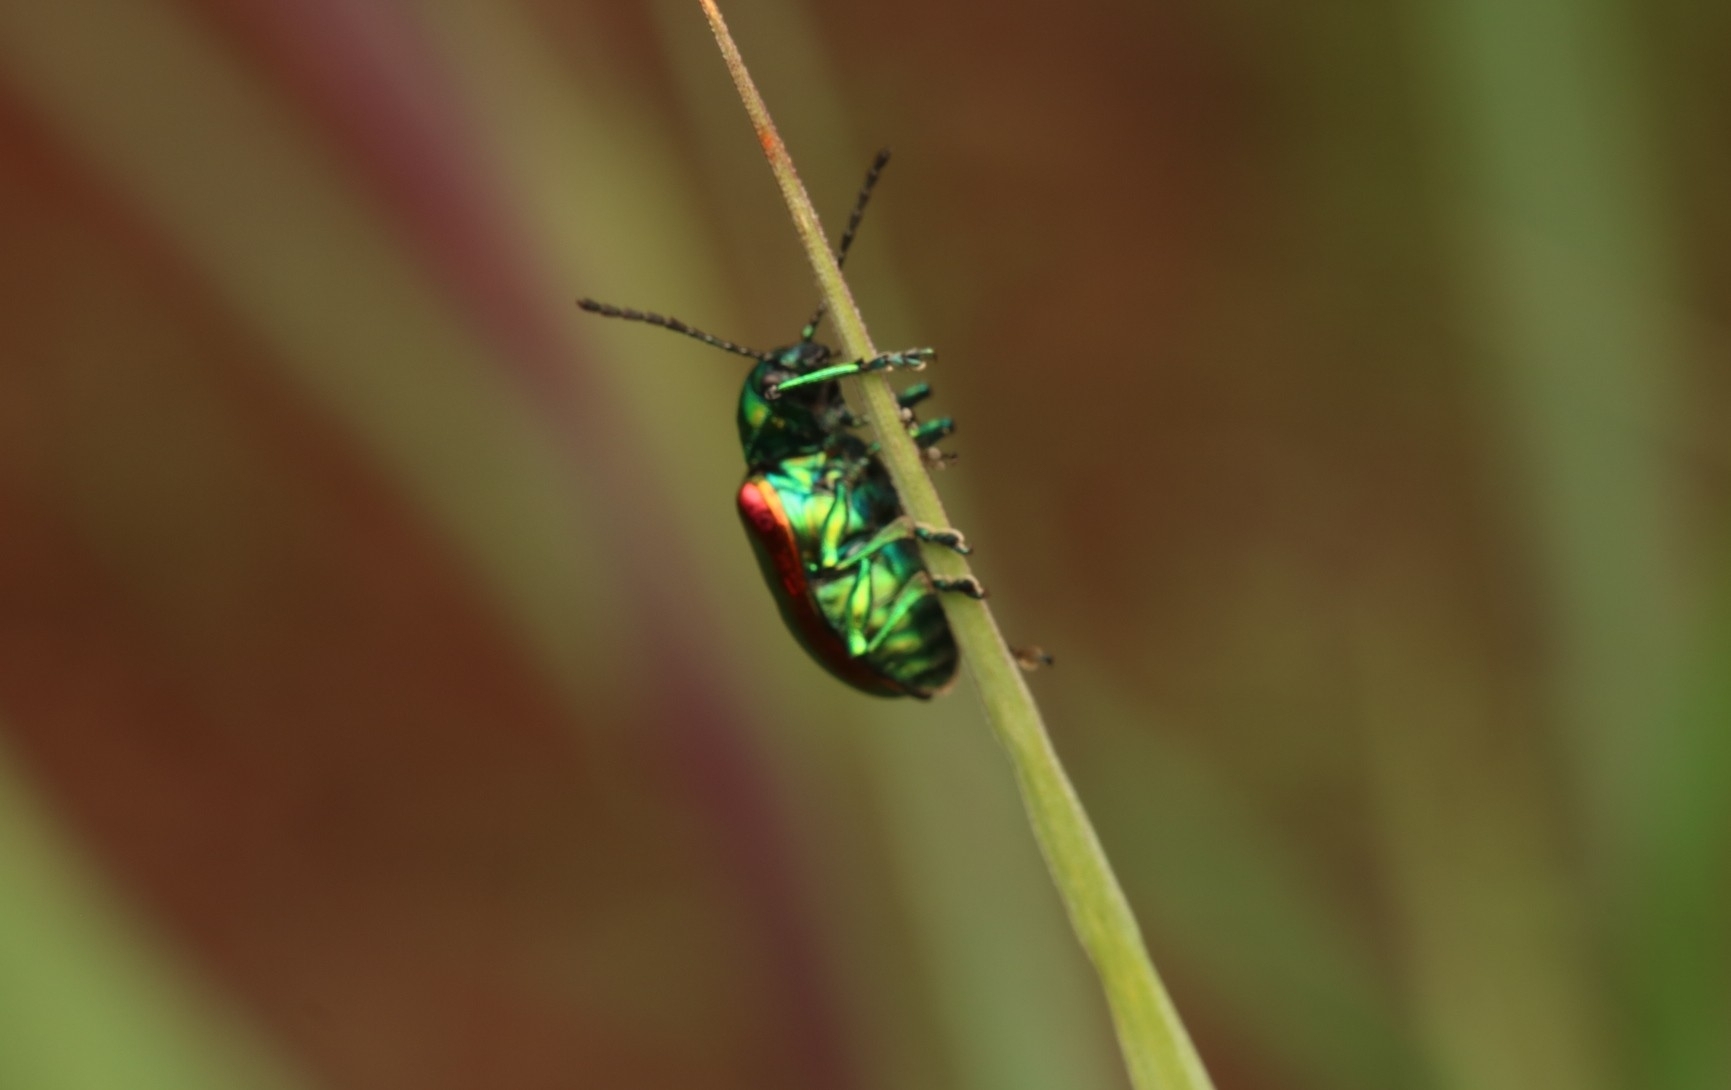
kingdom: Animalia
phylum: Arthropoda
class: Insecta
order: Coleoptera
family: Chrysomelidae
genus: Chrysochus
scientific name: Chrysochus auratus
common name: Dogbane leaf beetle
